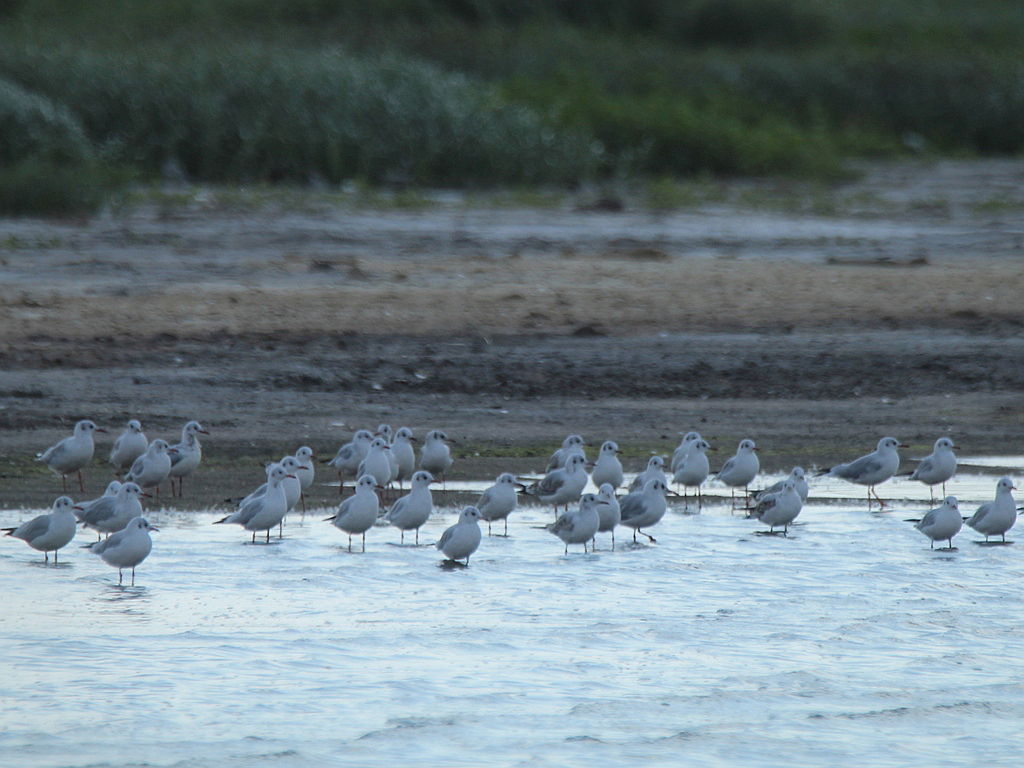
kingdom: Animalia
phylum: Chordata
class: Aves
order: Charadriiformes
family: Laridae
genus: Chroicocephalus
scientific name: Chroicocephalus ridibundus
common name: Black-headed gull
